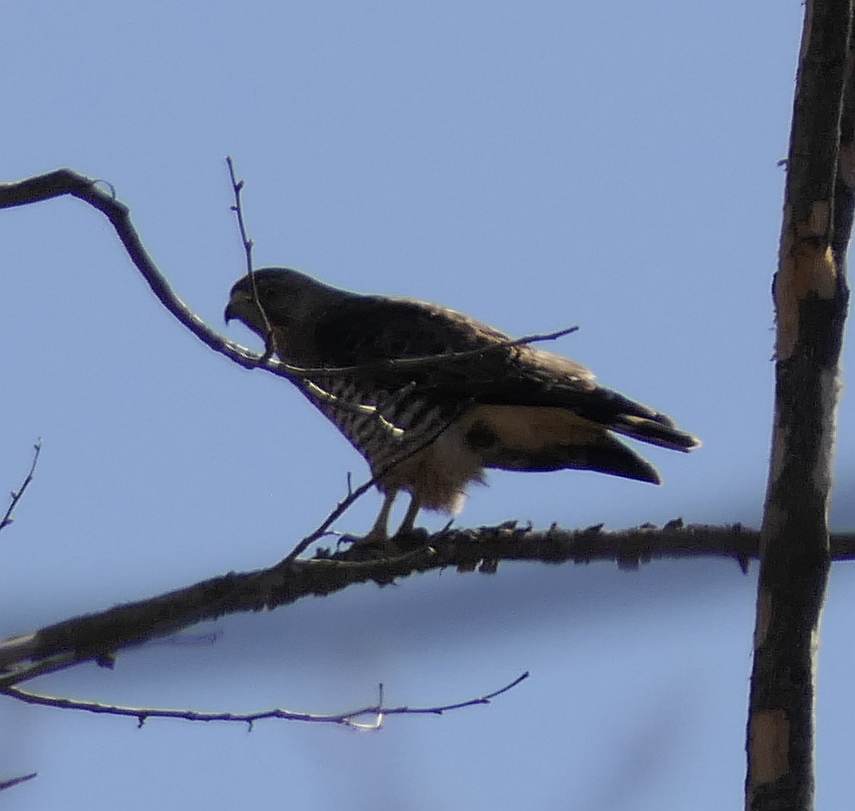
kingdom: Animalia
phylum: Chordata
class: Aves
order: Accipitriformes
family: Accipitridae
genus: Buteo
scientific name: Buteo platypterus
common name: Broad-winged hawk
